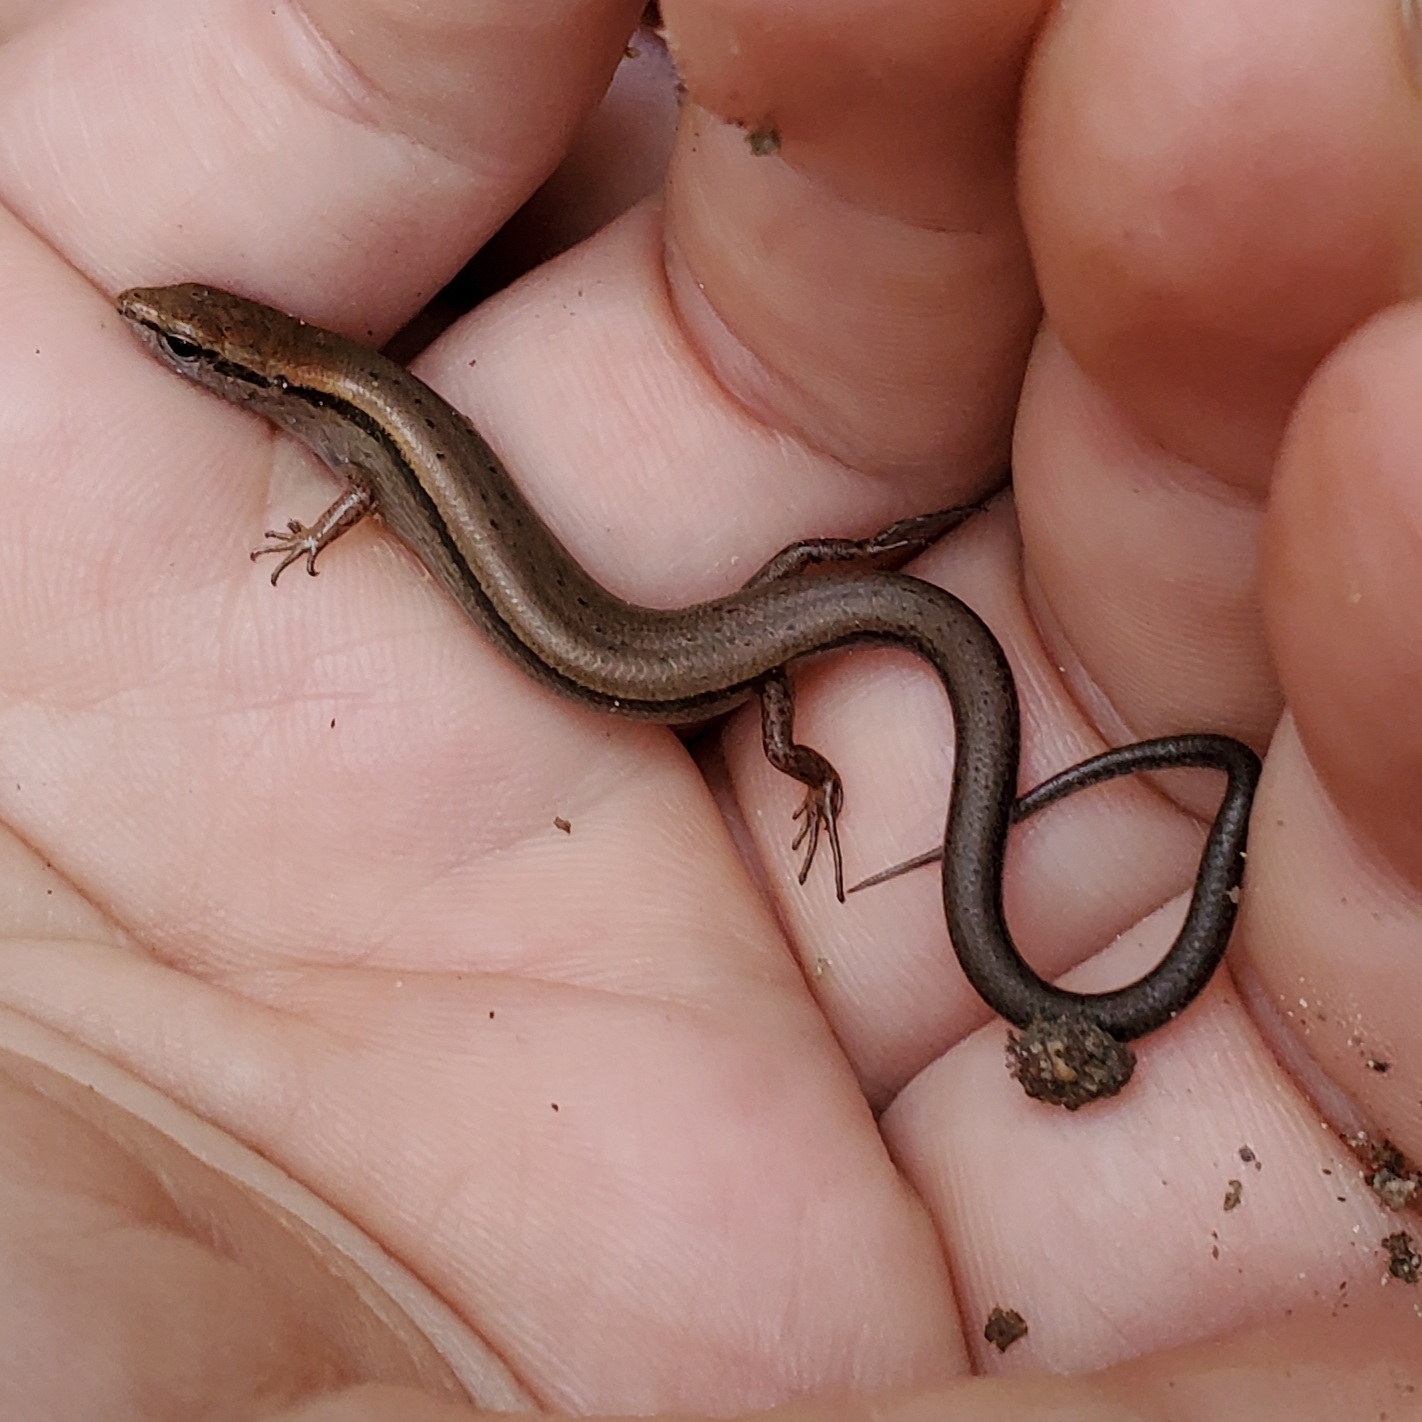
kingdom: Animalia
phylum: Chordata
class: Squamata
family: Scincidae
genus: Scincella
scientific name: Scincella lateralis
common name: Ground skink
